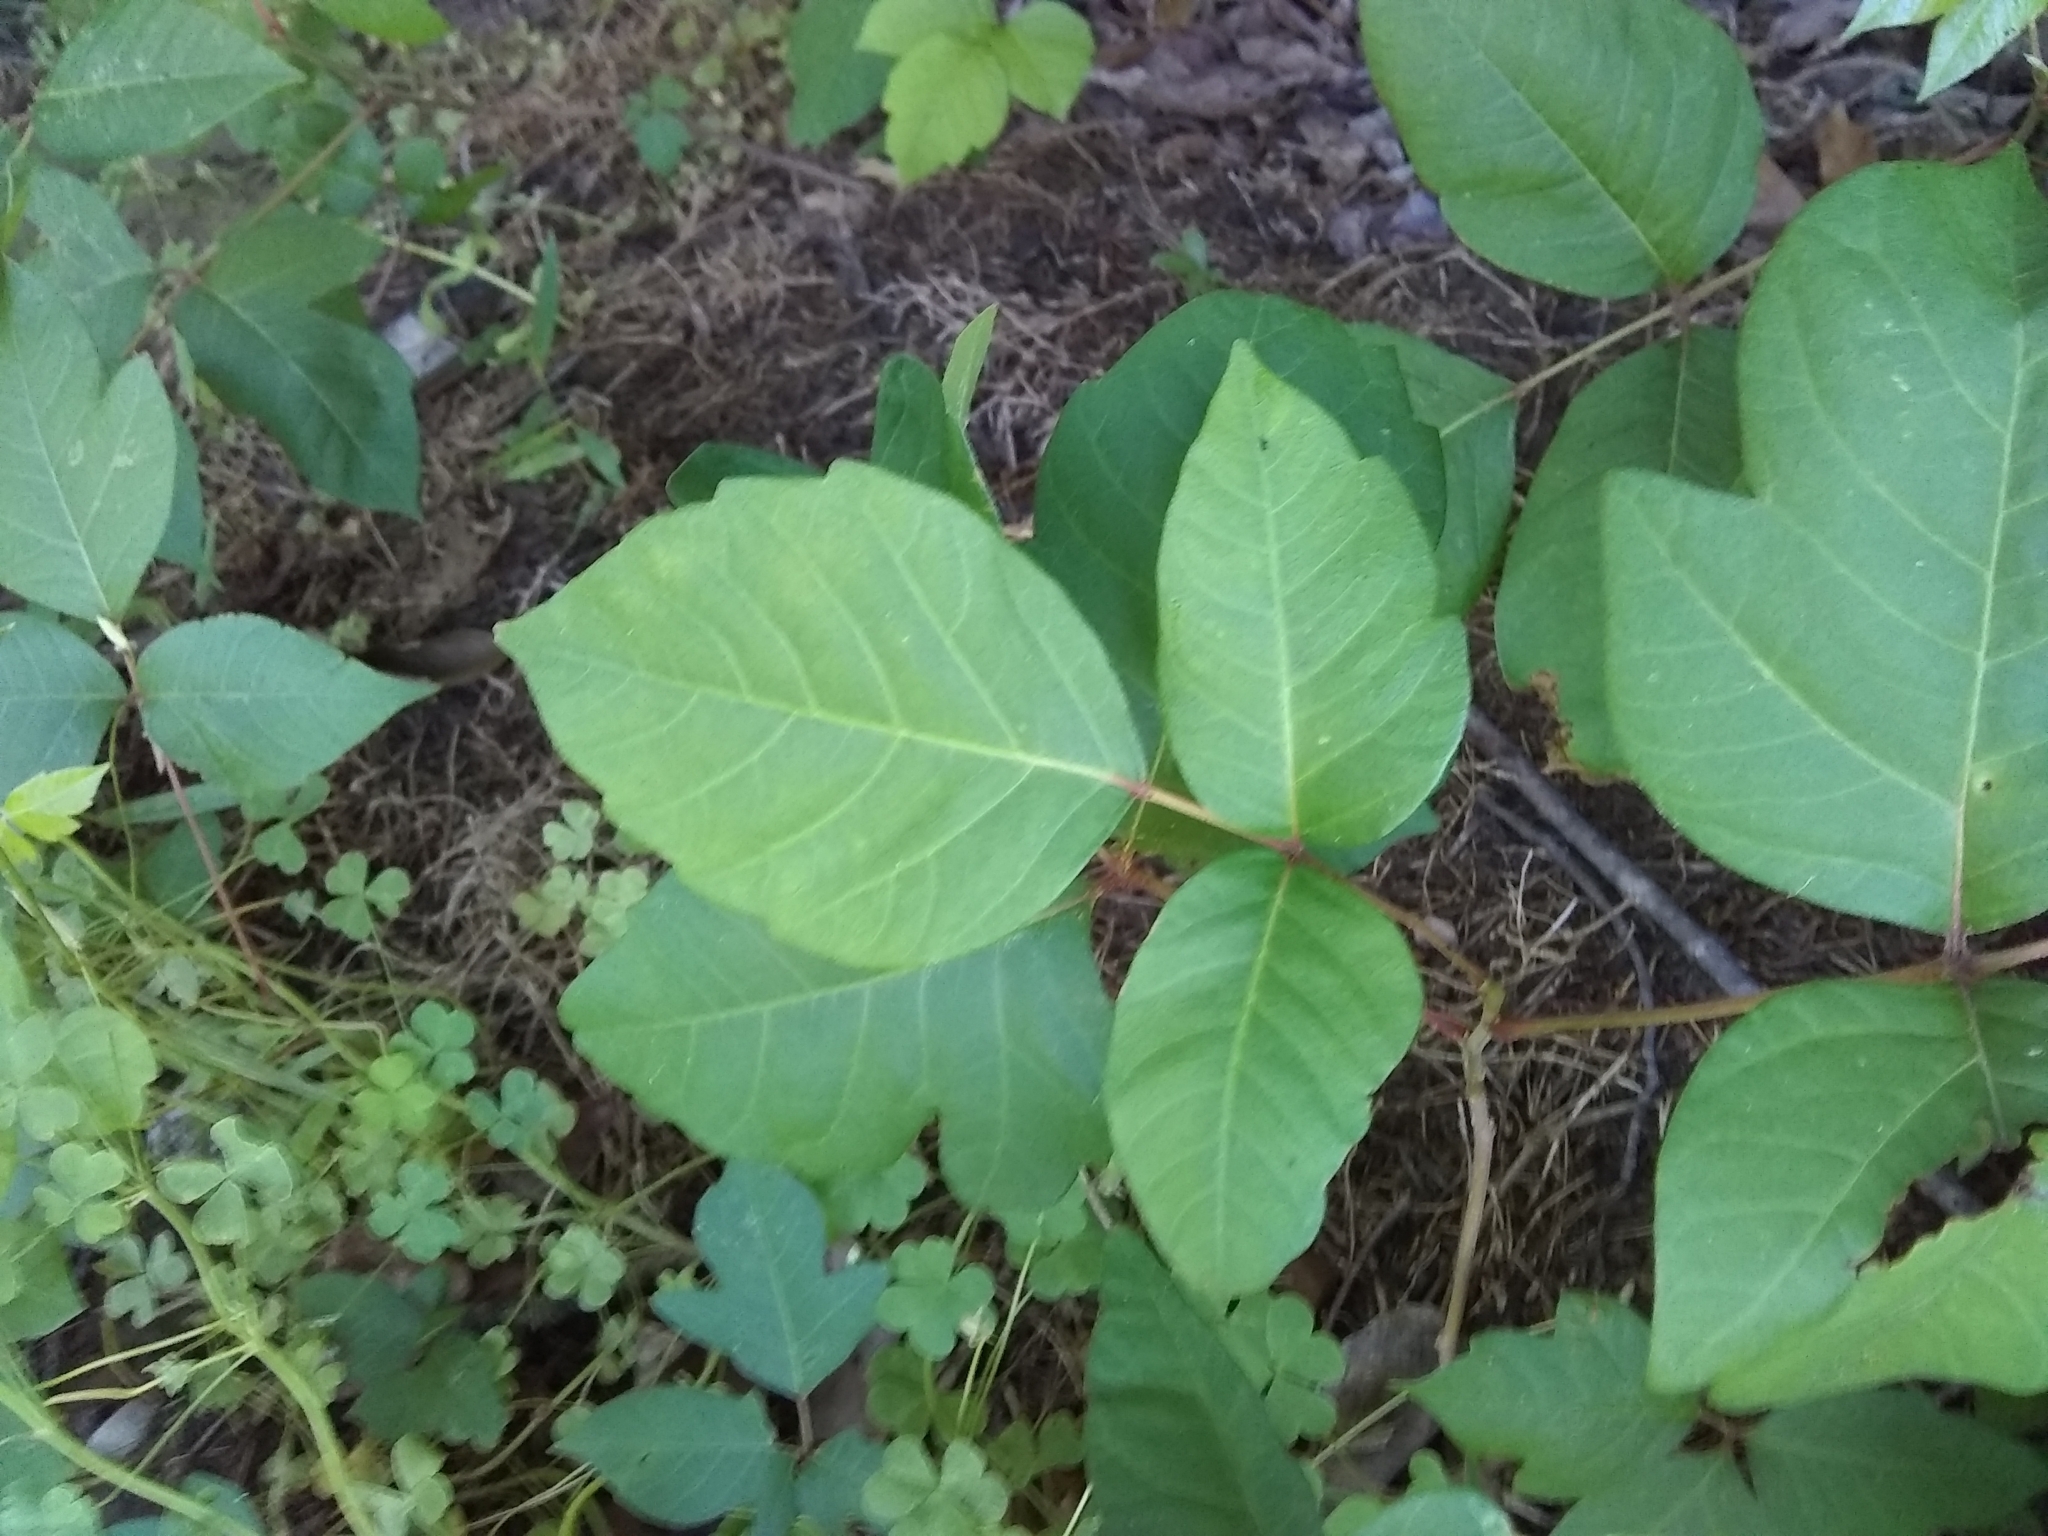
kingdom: Plantae
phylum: Tracheophyta
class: Magnoliopsida
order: Sapindales
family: Anacardiaceae
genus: Toxicodendron
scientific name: Toxicodendron radicans
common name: Poison ivy
